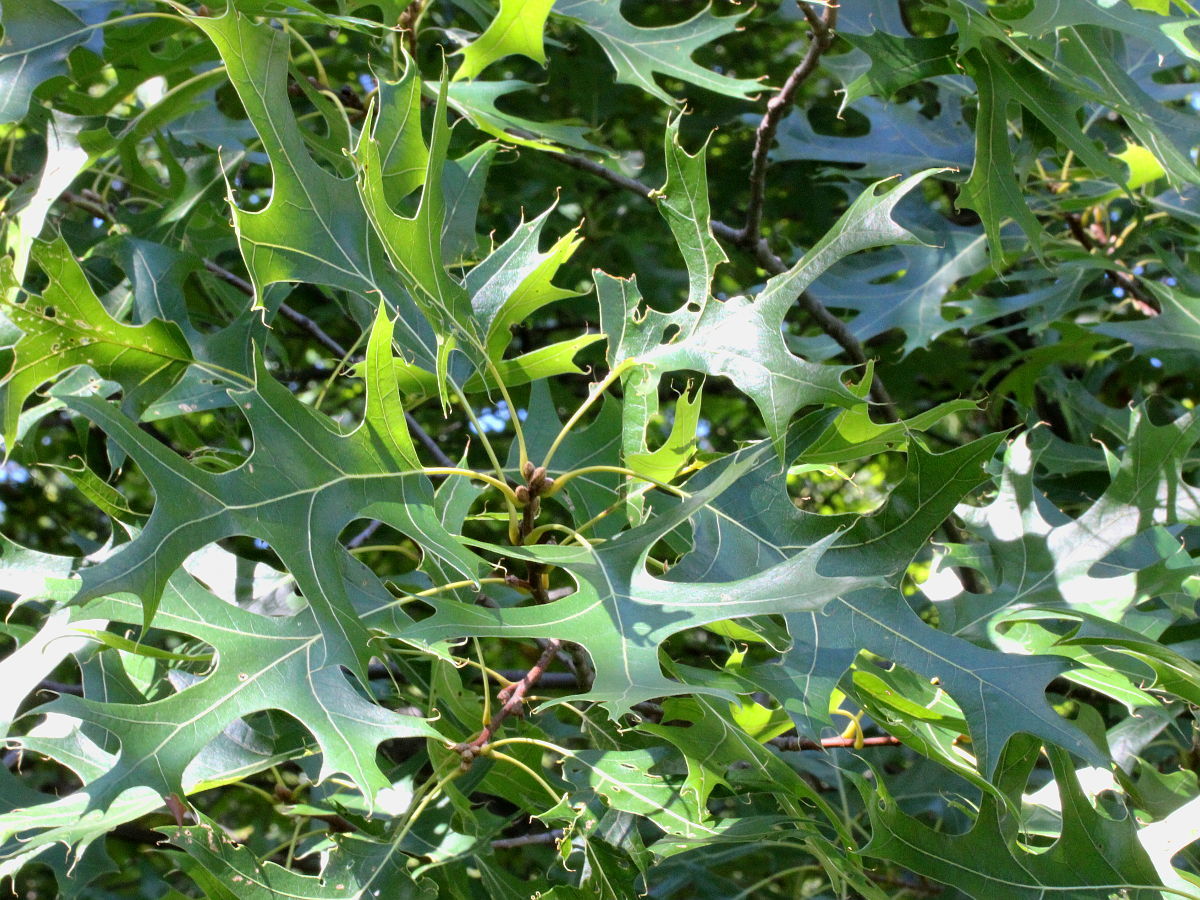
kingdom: Plantae
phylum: Tracheophyta
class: Magnoliopsida
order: Fagales
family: Fagaceae
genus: Quercus
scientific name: Quercus palustris
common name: Pin oak
